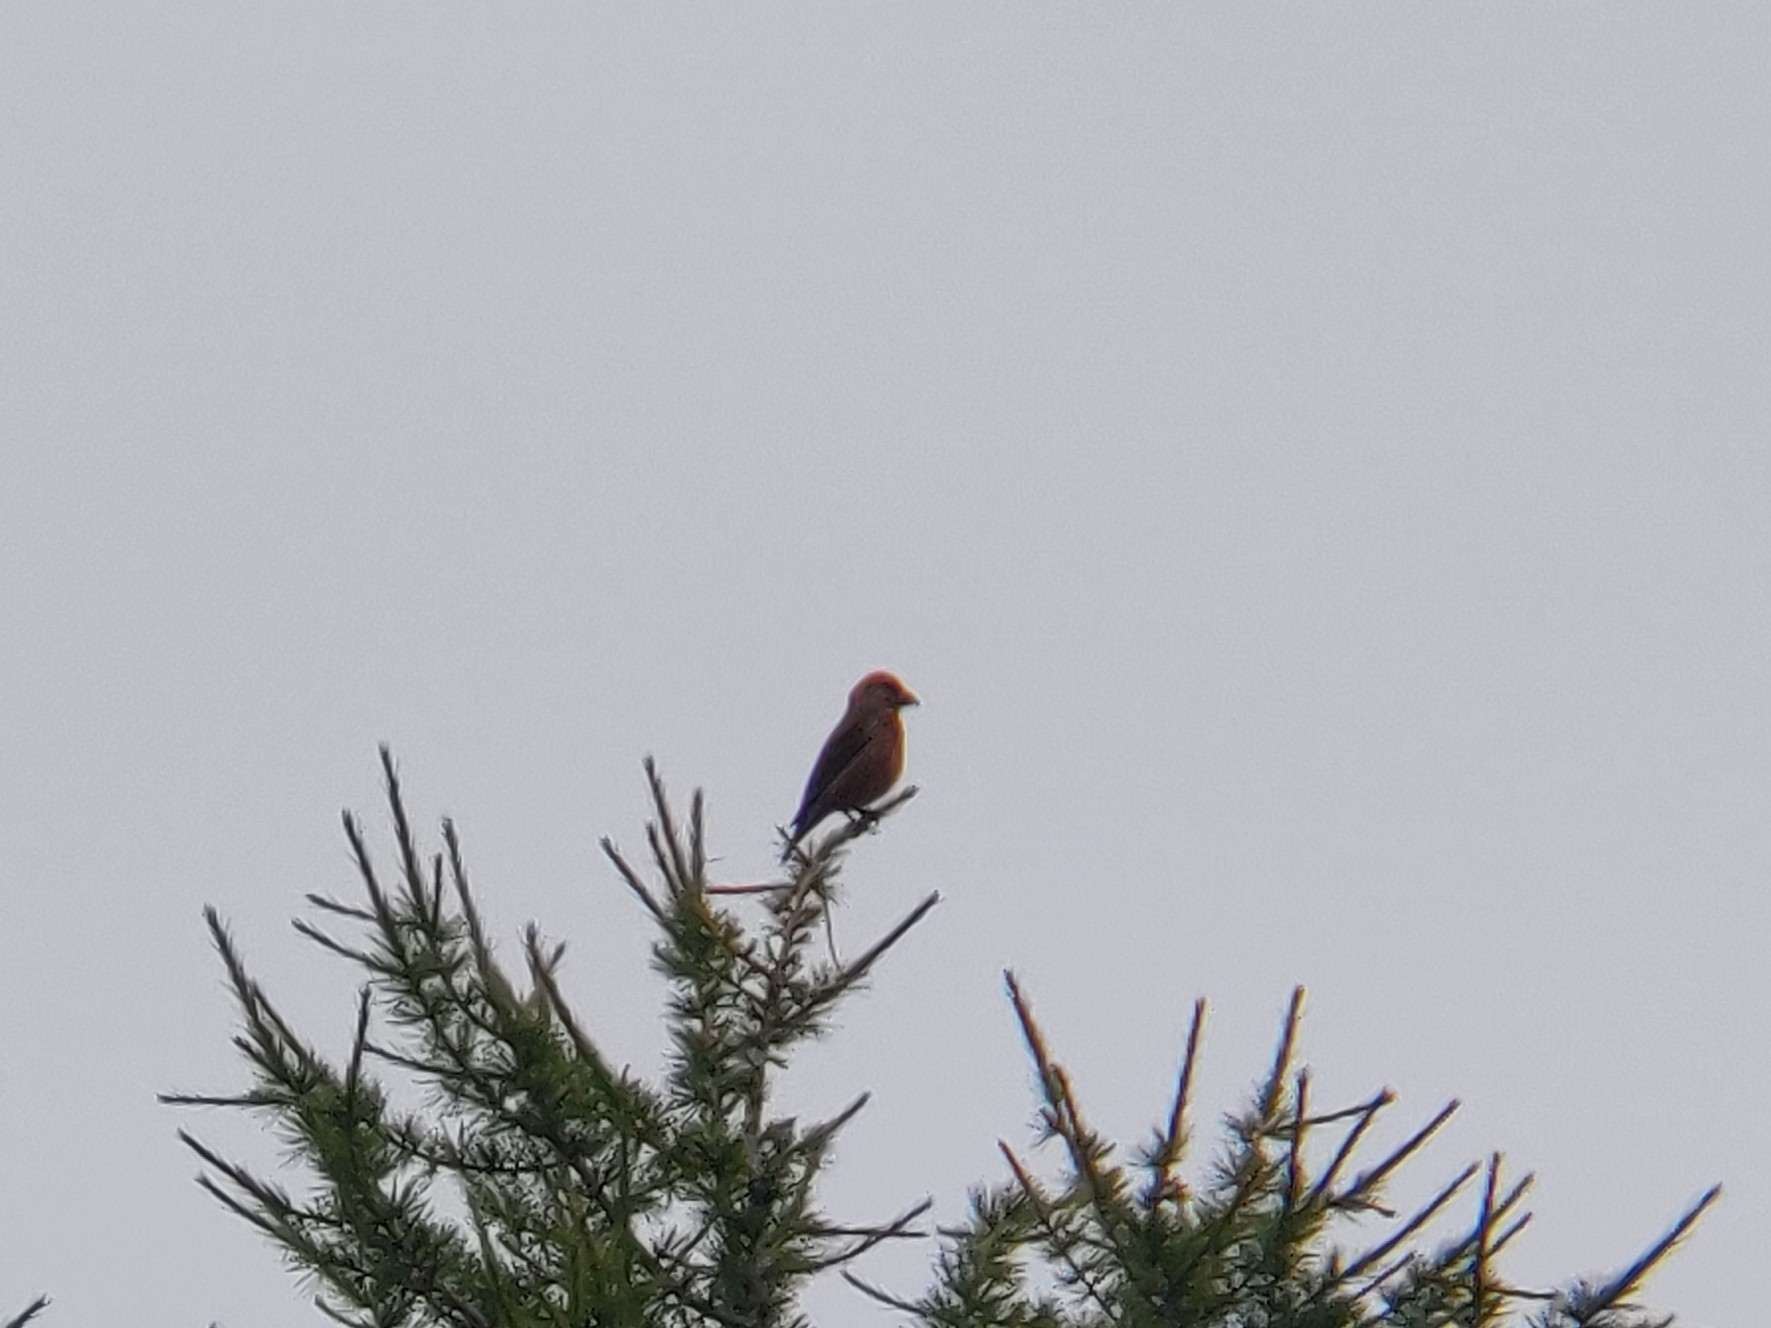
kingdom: Animalia
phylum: Chordata
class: Aves
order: Passeriformes
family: Fringillidae
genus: Loxia
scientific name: Loxia curvirostra
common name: Red crossbill
